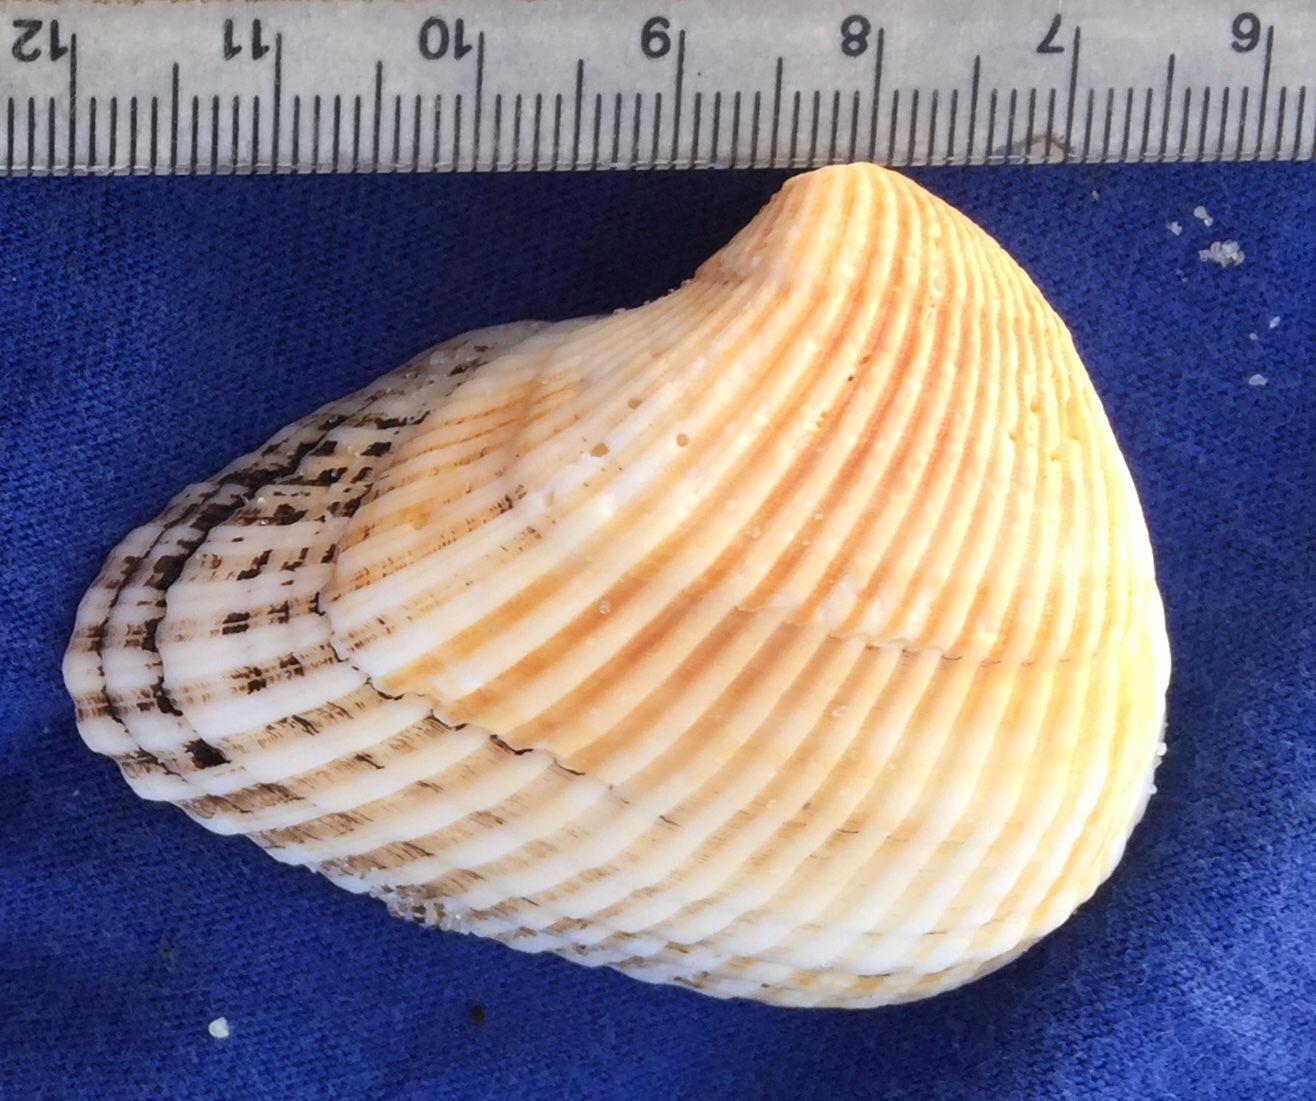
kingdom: Animalia
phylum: Mollusca
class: Bivalvia
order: Arcida
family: Noetiidae
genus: Noetia
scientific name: Noetia ponderosa
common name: Ponderous ark
